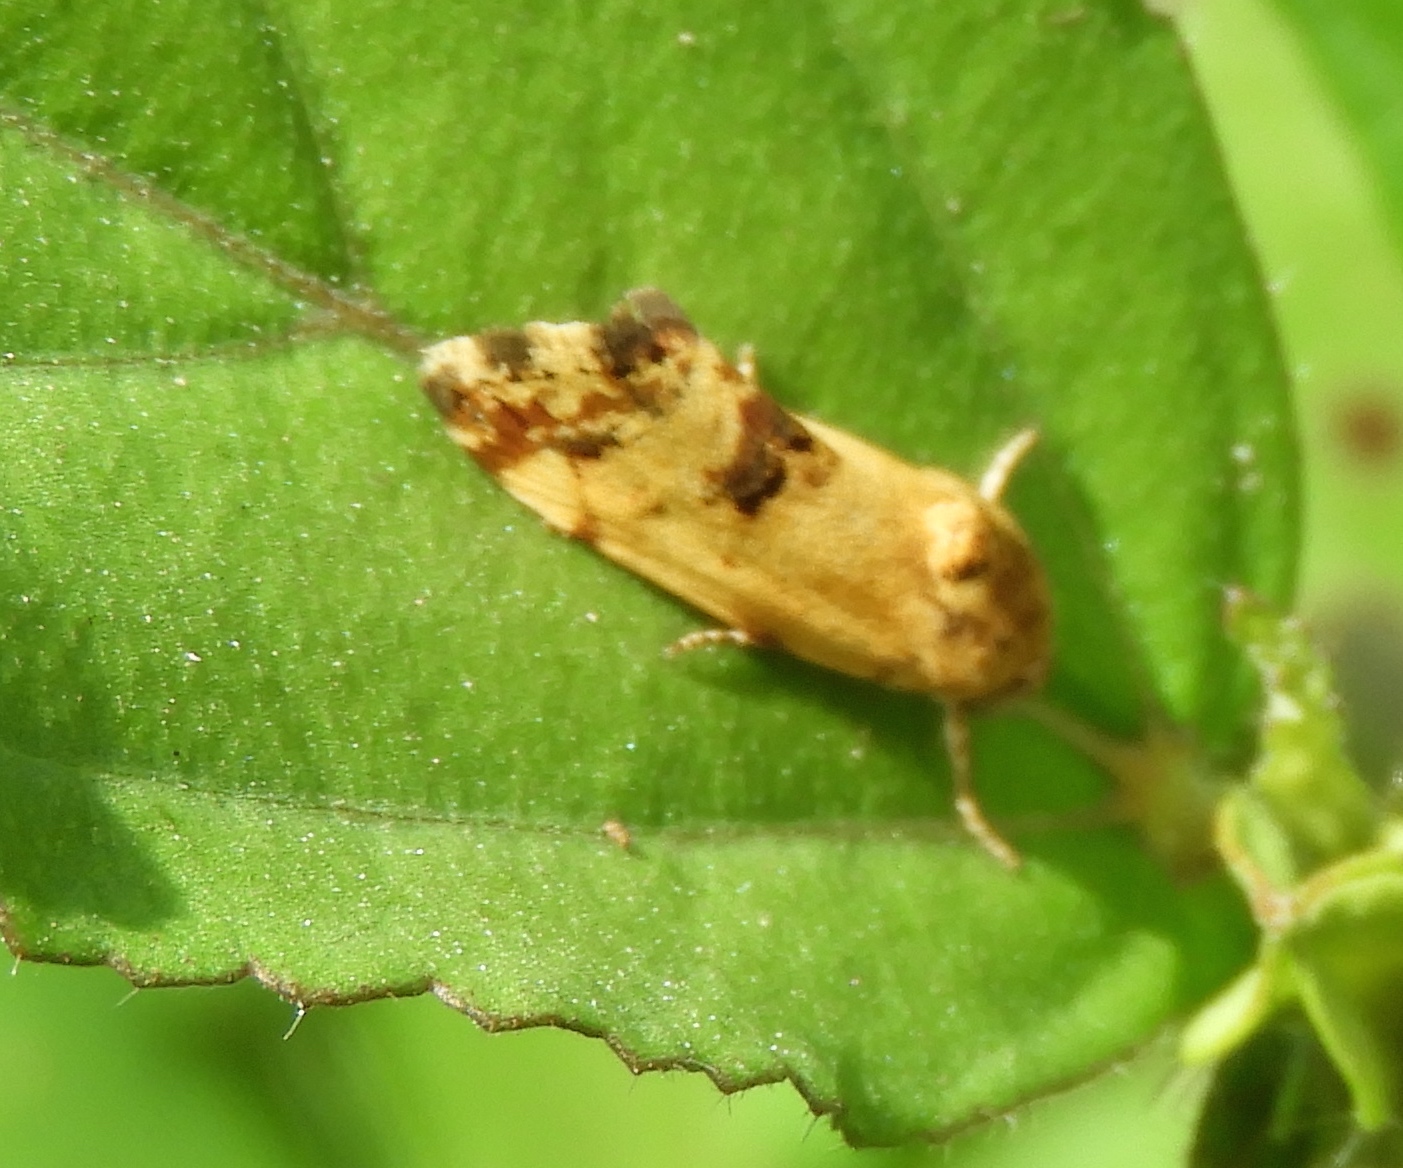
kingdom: Animalia
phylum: Arthropoda
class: Insecta
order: Lepidoptera
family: Noctuidae
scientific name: Noctuidae
